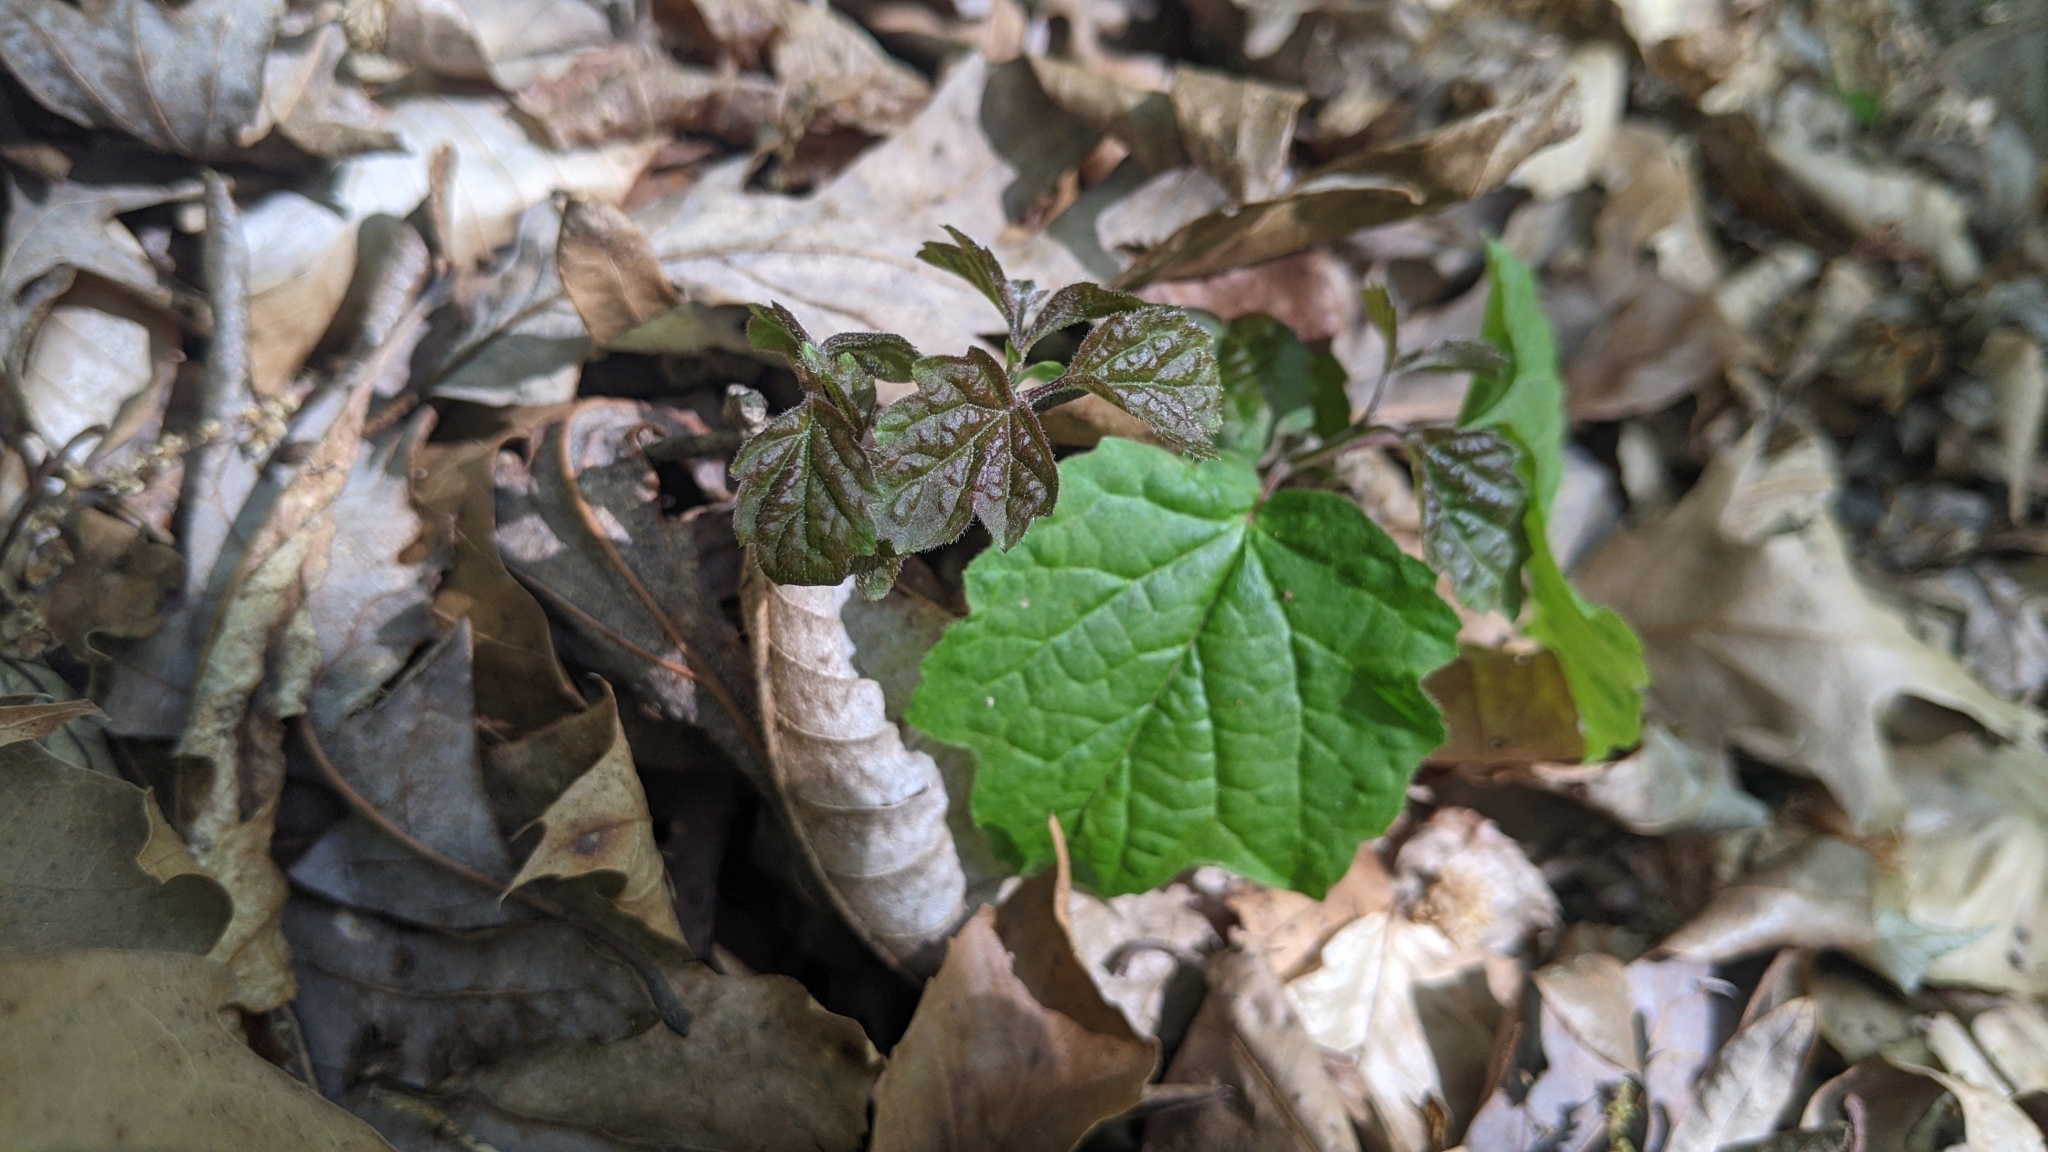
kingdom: Plantae
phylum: Tracheophyta
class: Magnoliopsida
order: Dipsacales
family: Viburnaceae
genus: Viburnum
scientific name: Viburnum acerifolium
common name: Dockmackie
